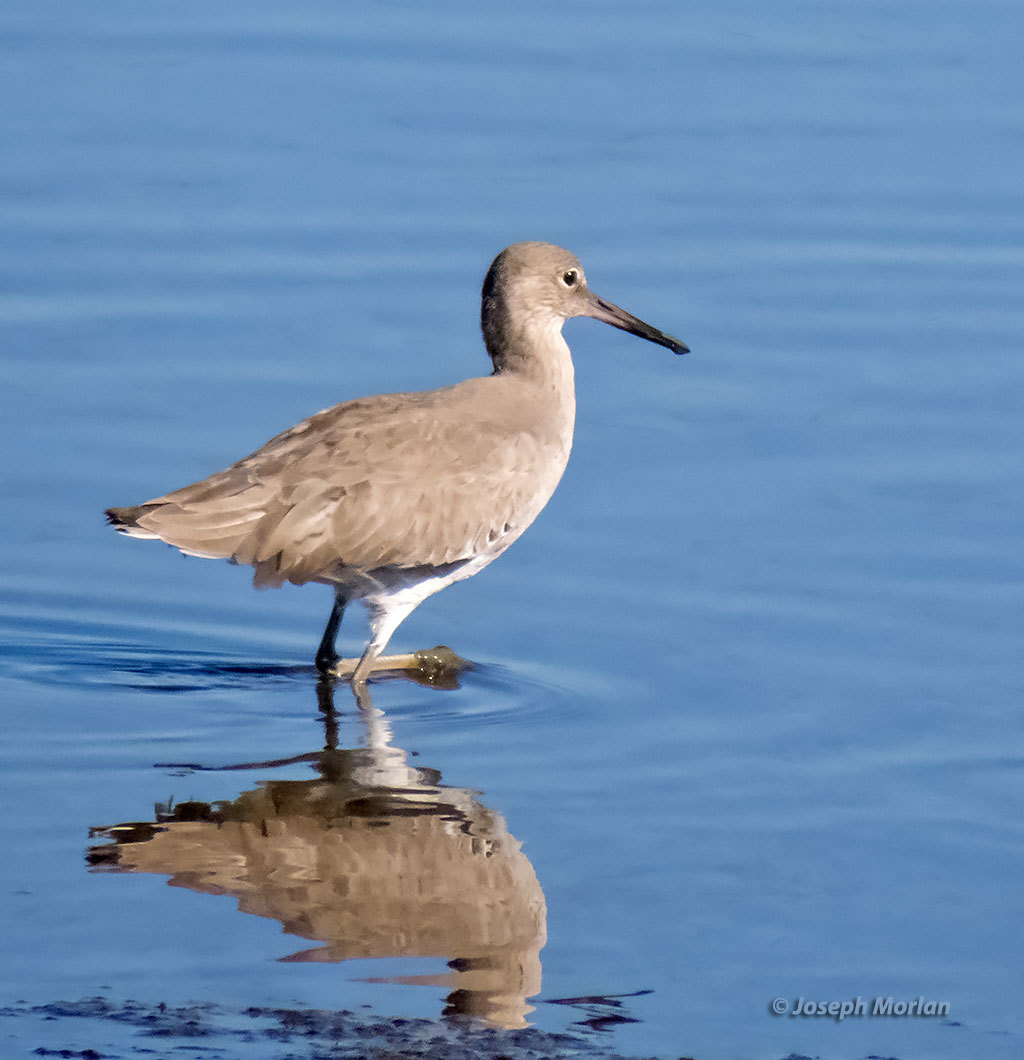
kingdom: Animalia
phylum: Chordata
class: Aves
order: Charadriiformes
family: Scolopacidae
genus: Tringa
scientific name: Tringa semipalmata
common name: Willet
